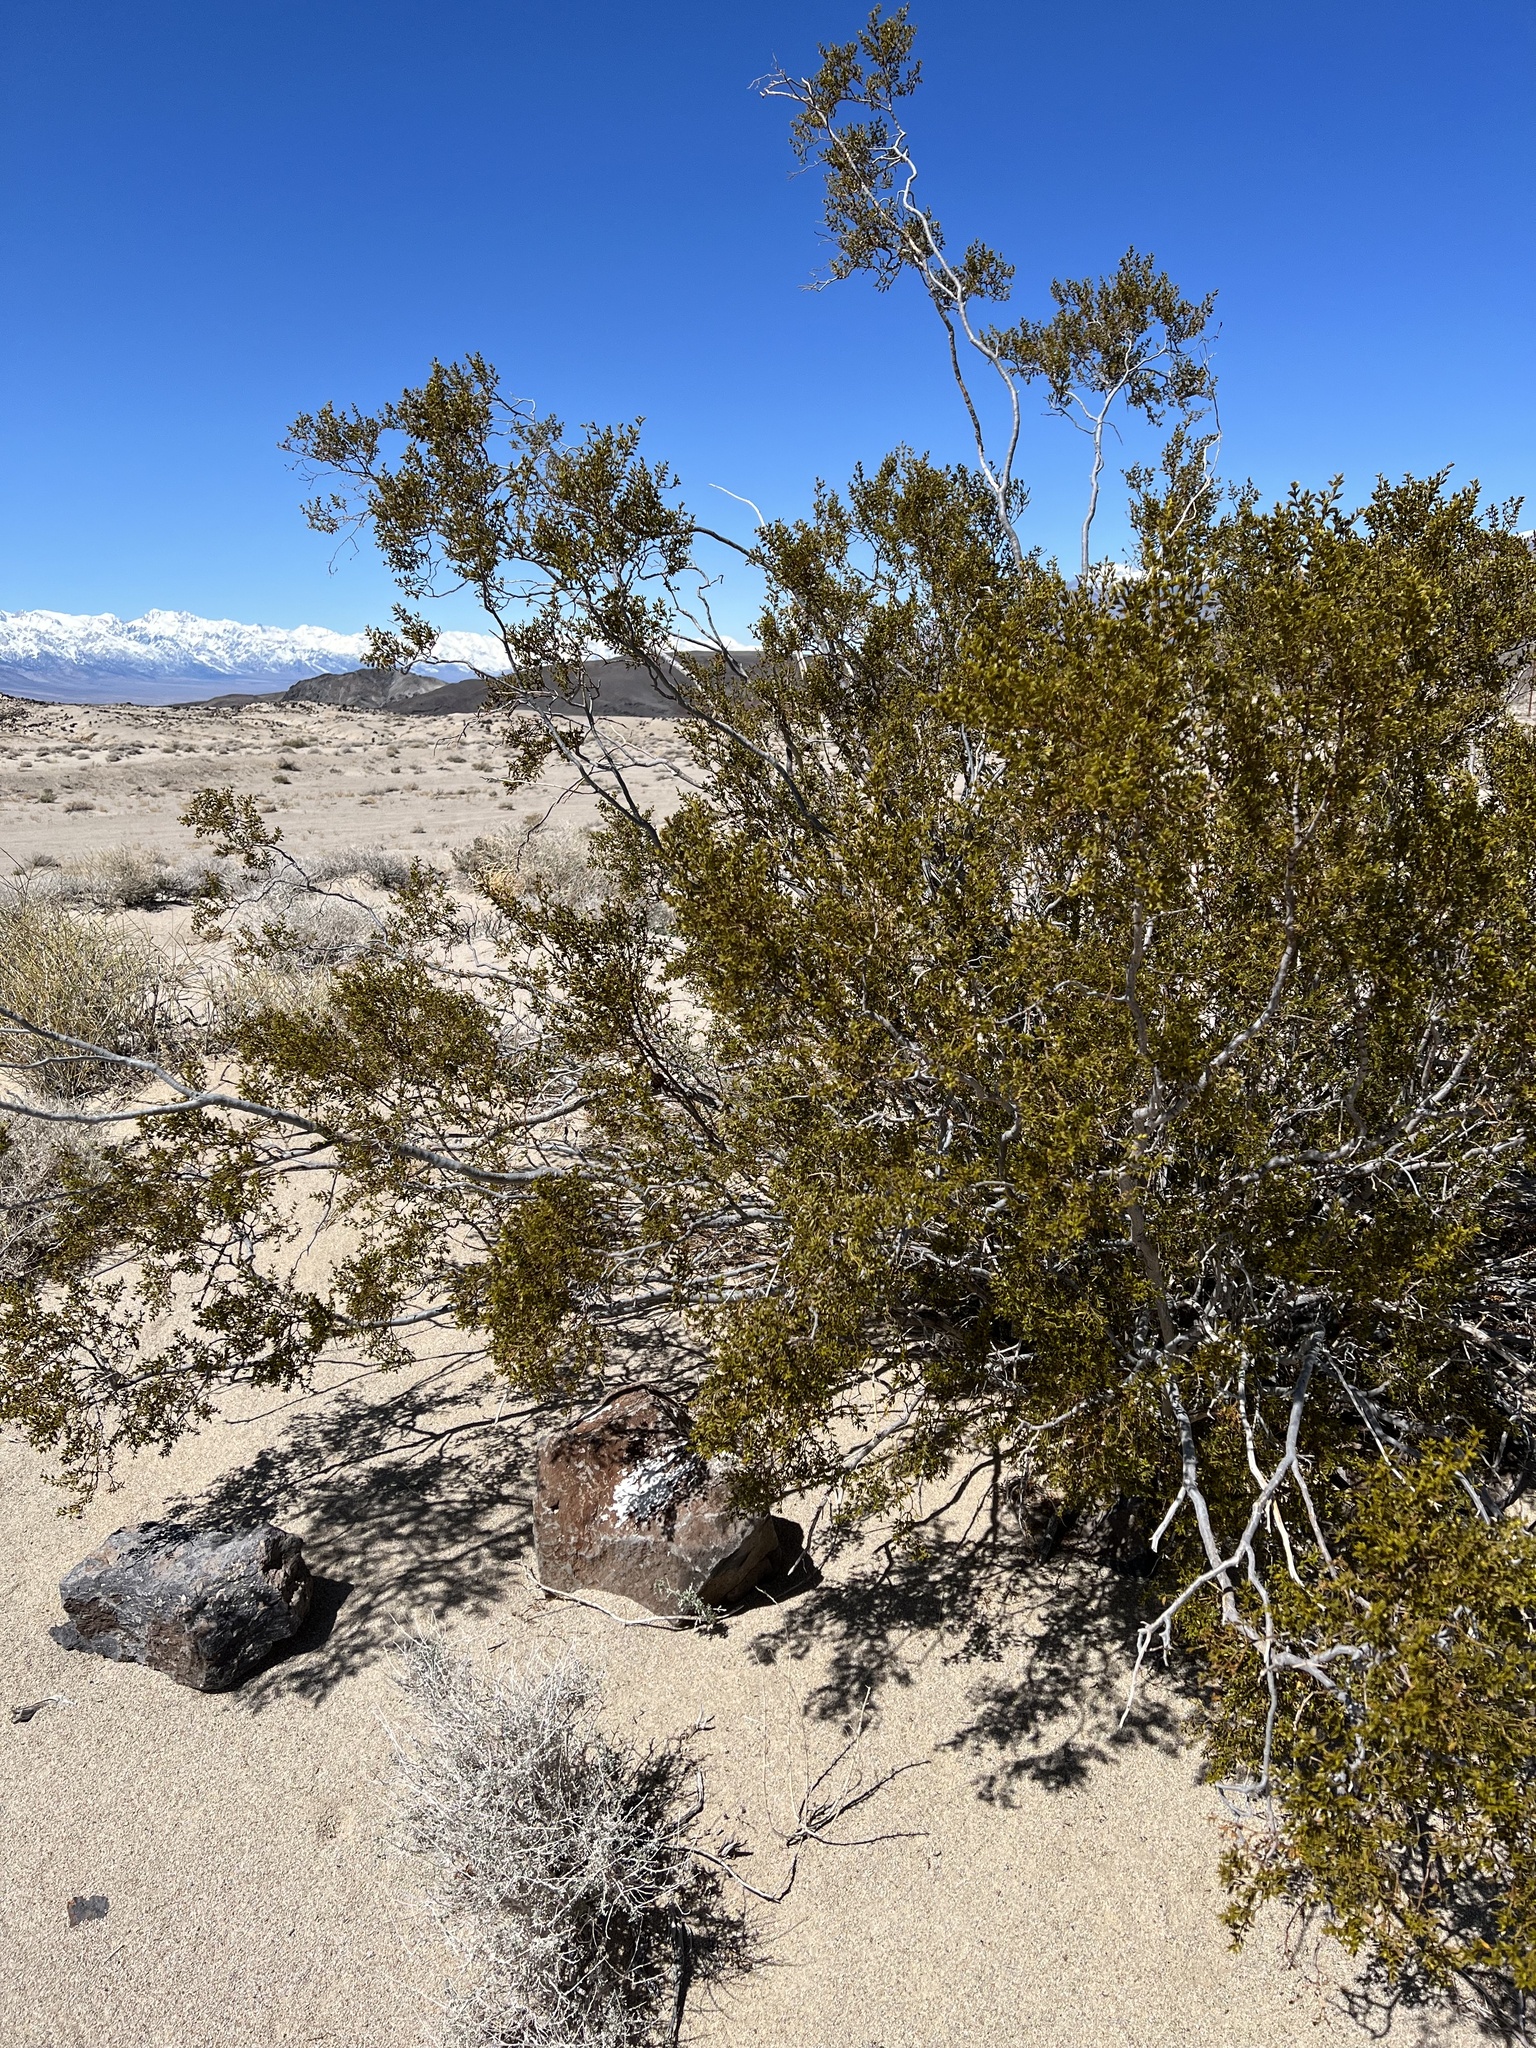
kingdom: Plantae
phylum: Tracheophyta
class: Magnoliopsida
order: Zygophyllales
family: Zygophyllaceae
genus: Larrea
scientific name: Larrea tridentata
